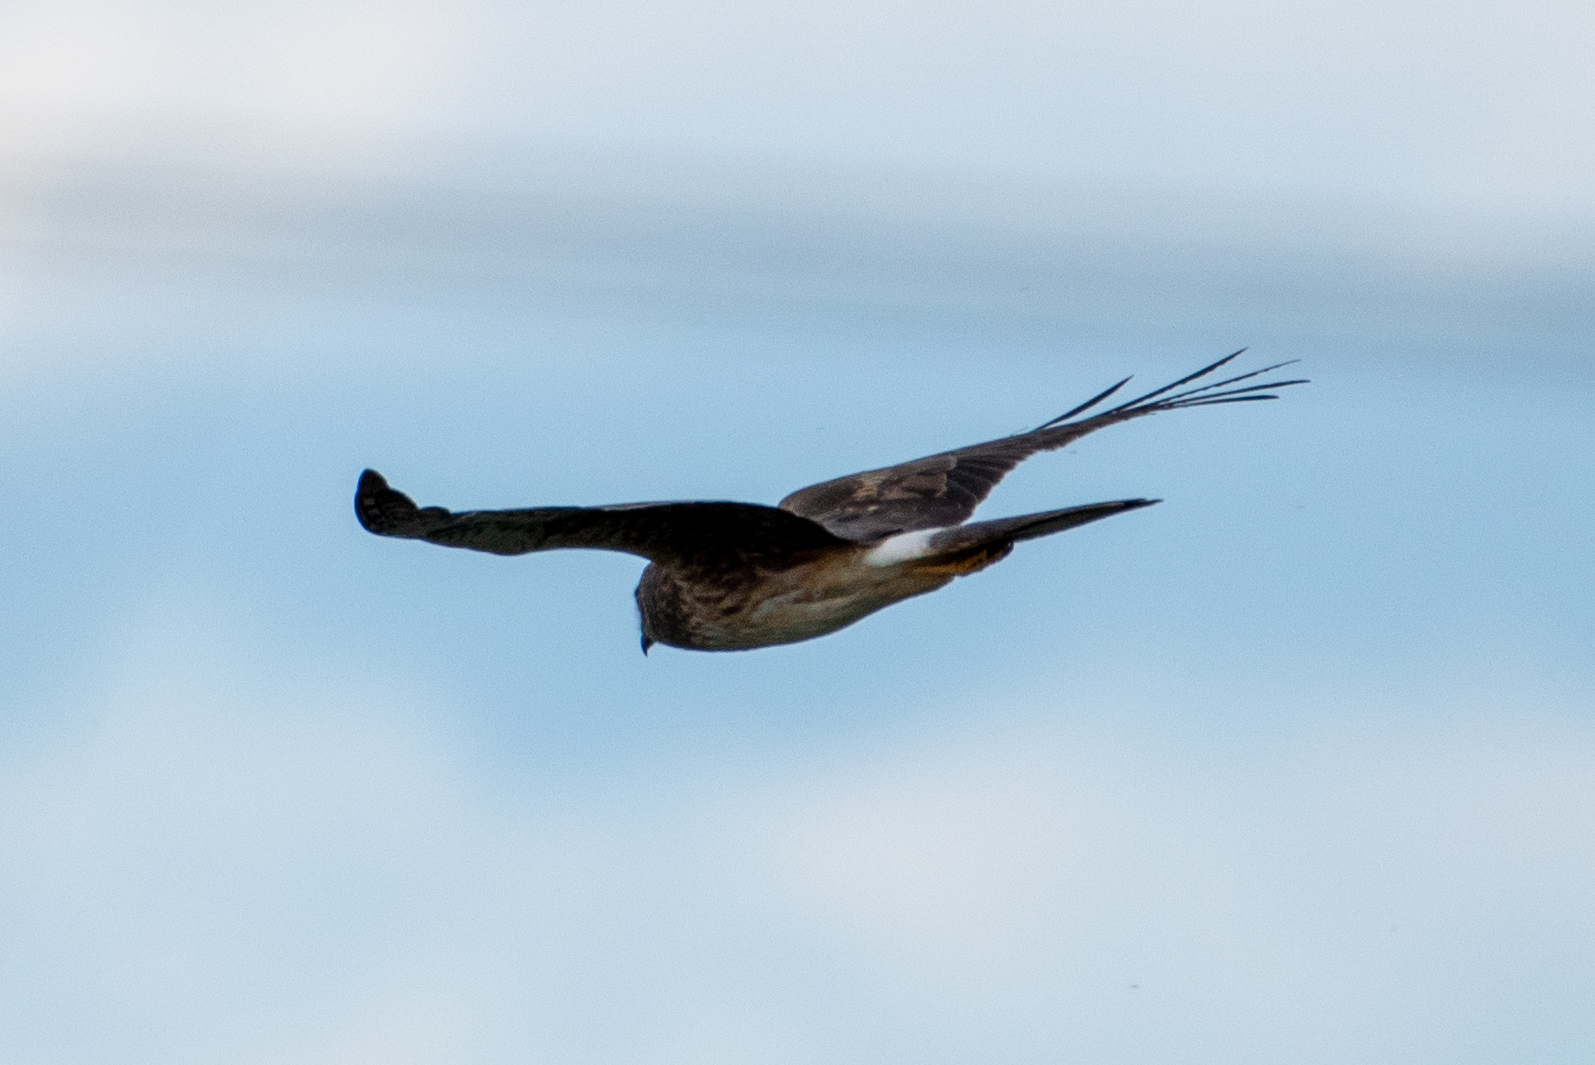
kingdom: Animalia
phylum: Chordata
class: Aves
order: Accipitriformes
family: Accipitridae
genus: Circus
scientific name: Circus cyaneus
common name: Hen harrier
